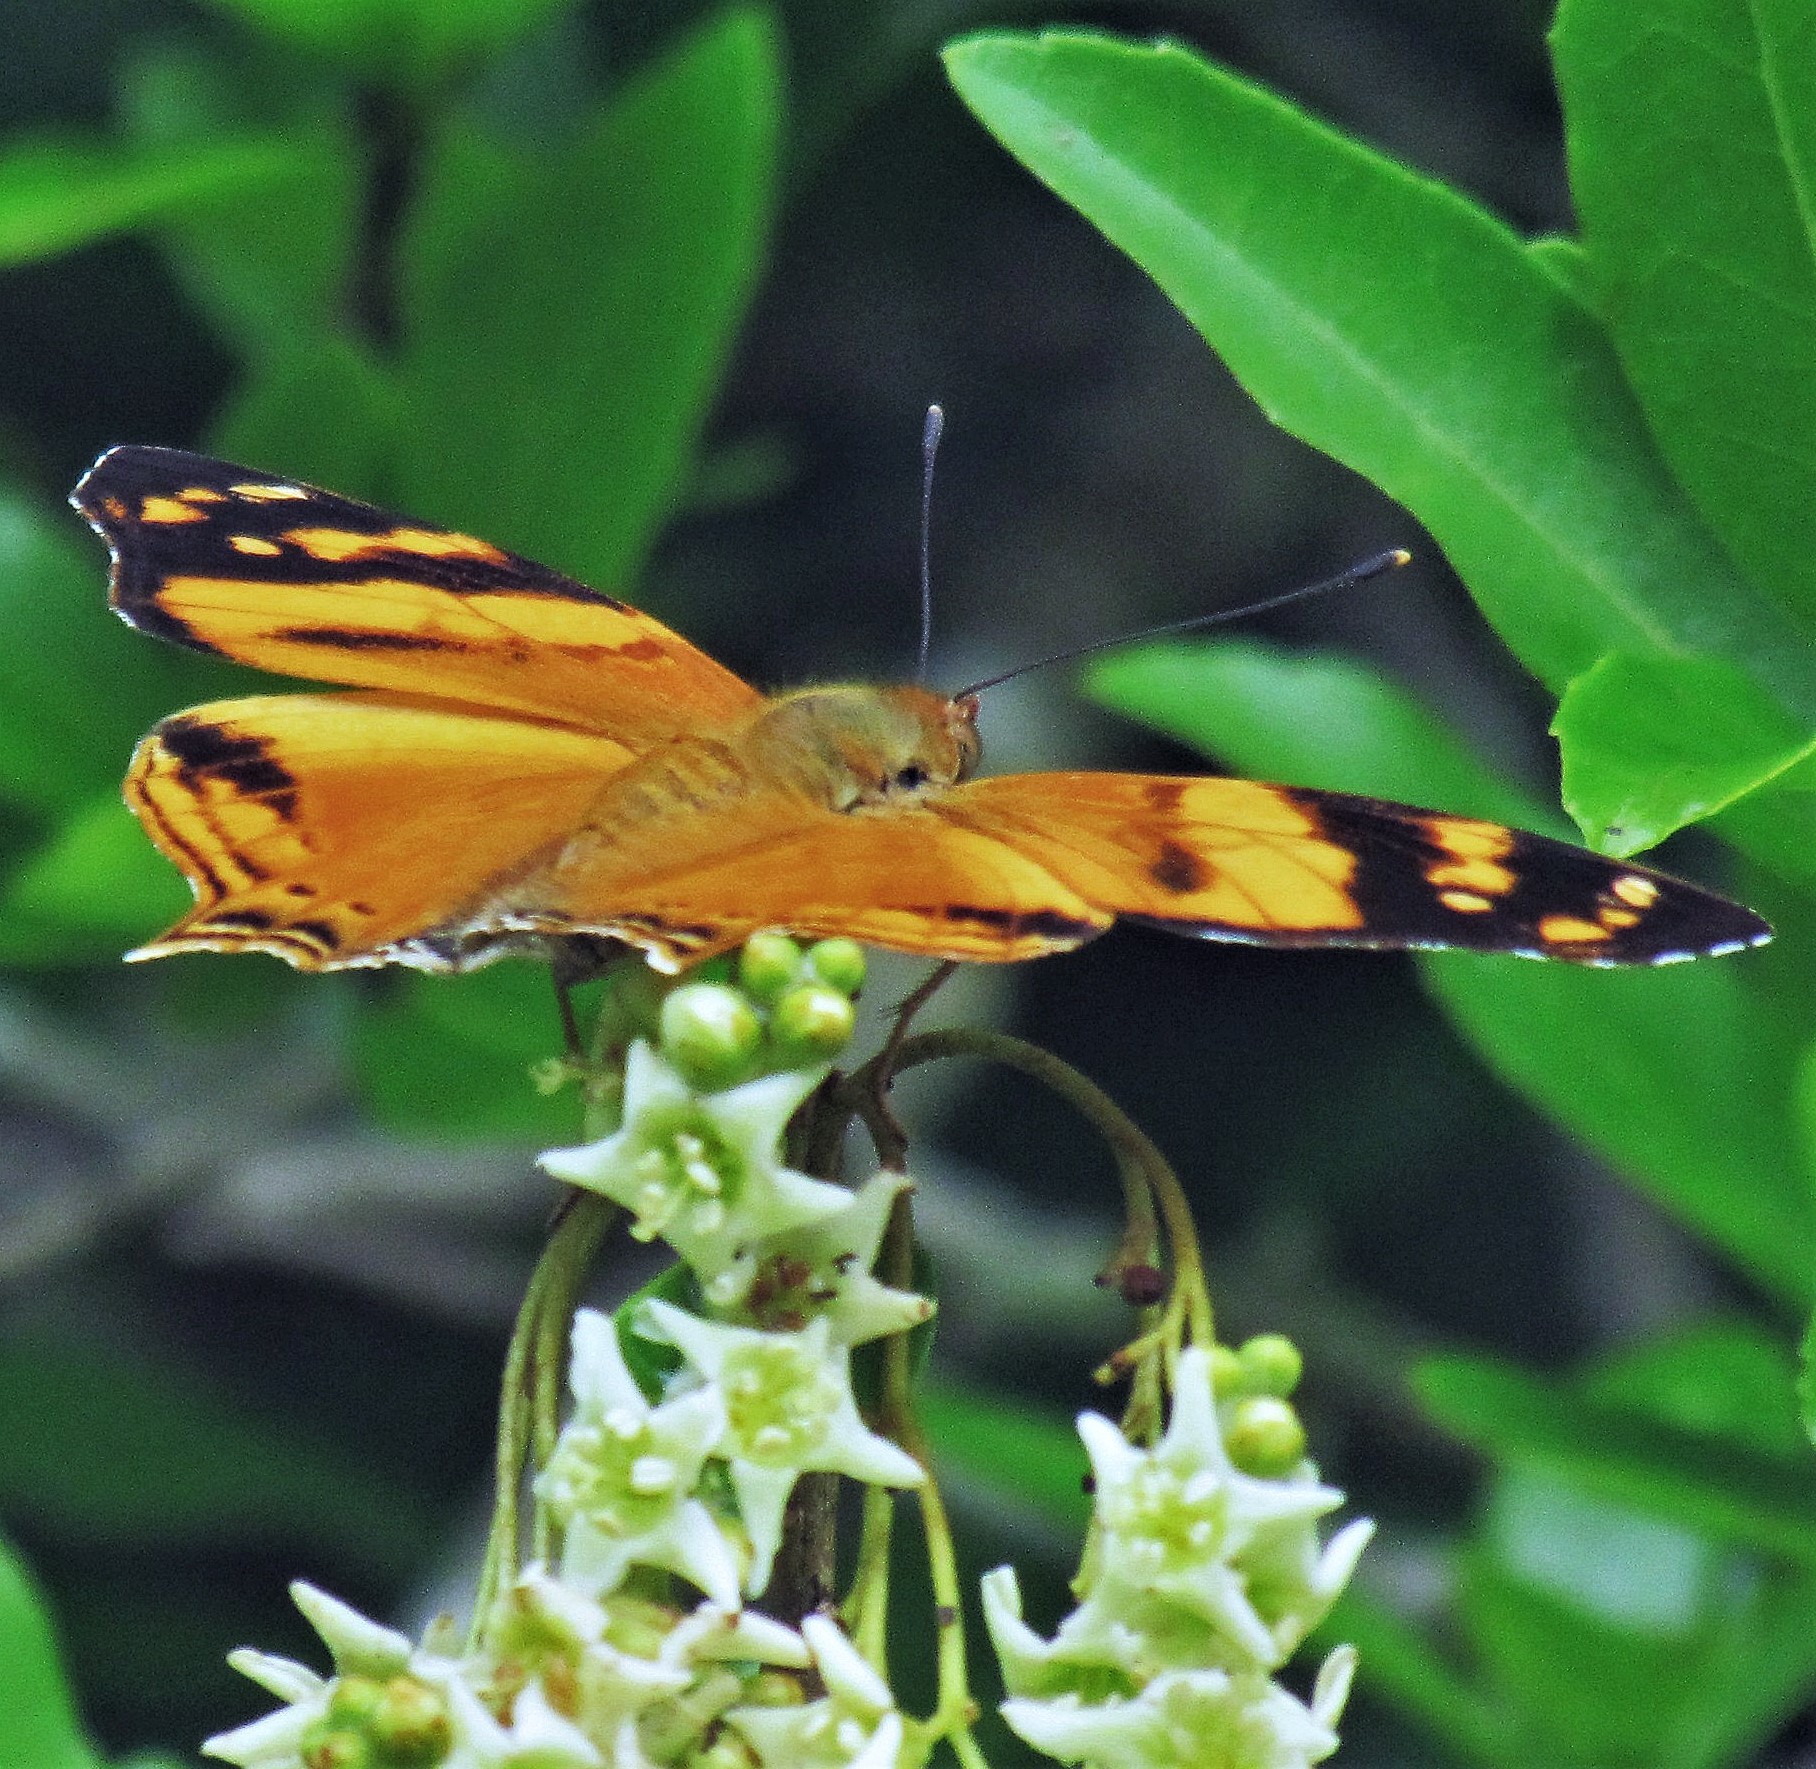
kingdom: Animalia
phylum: Arthropoda
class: Insecta
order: Lepidoptera
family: Nymphalidae
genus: Hypanartia
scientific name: Hypanartia lethe
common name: Orange mapwing
